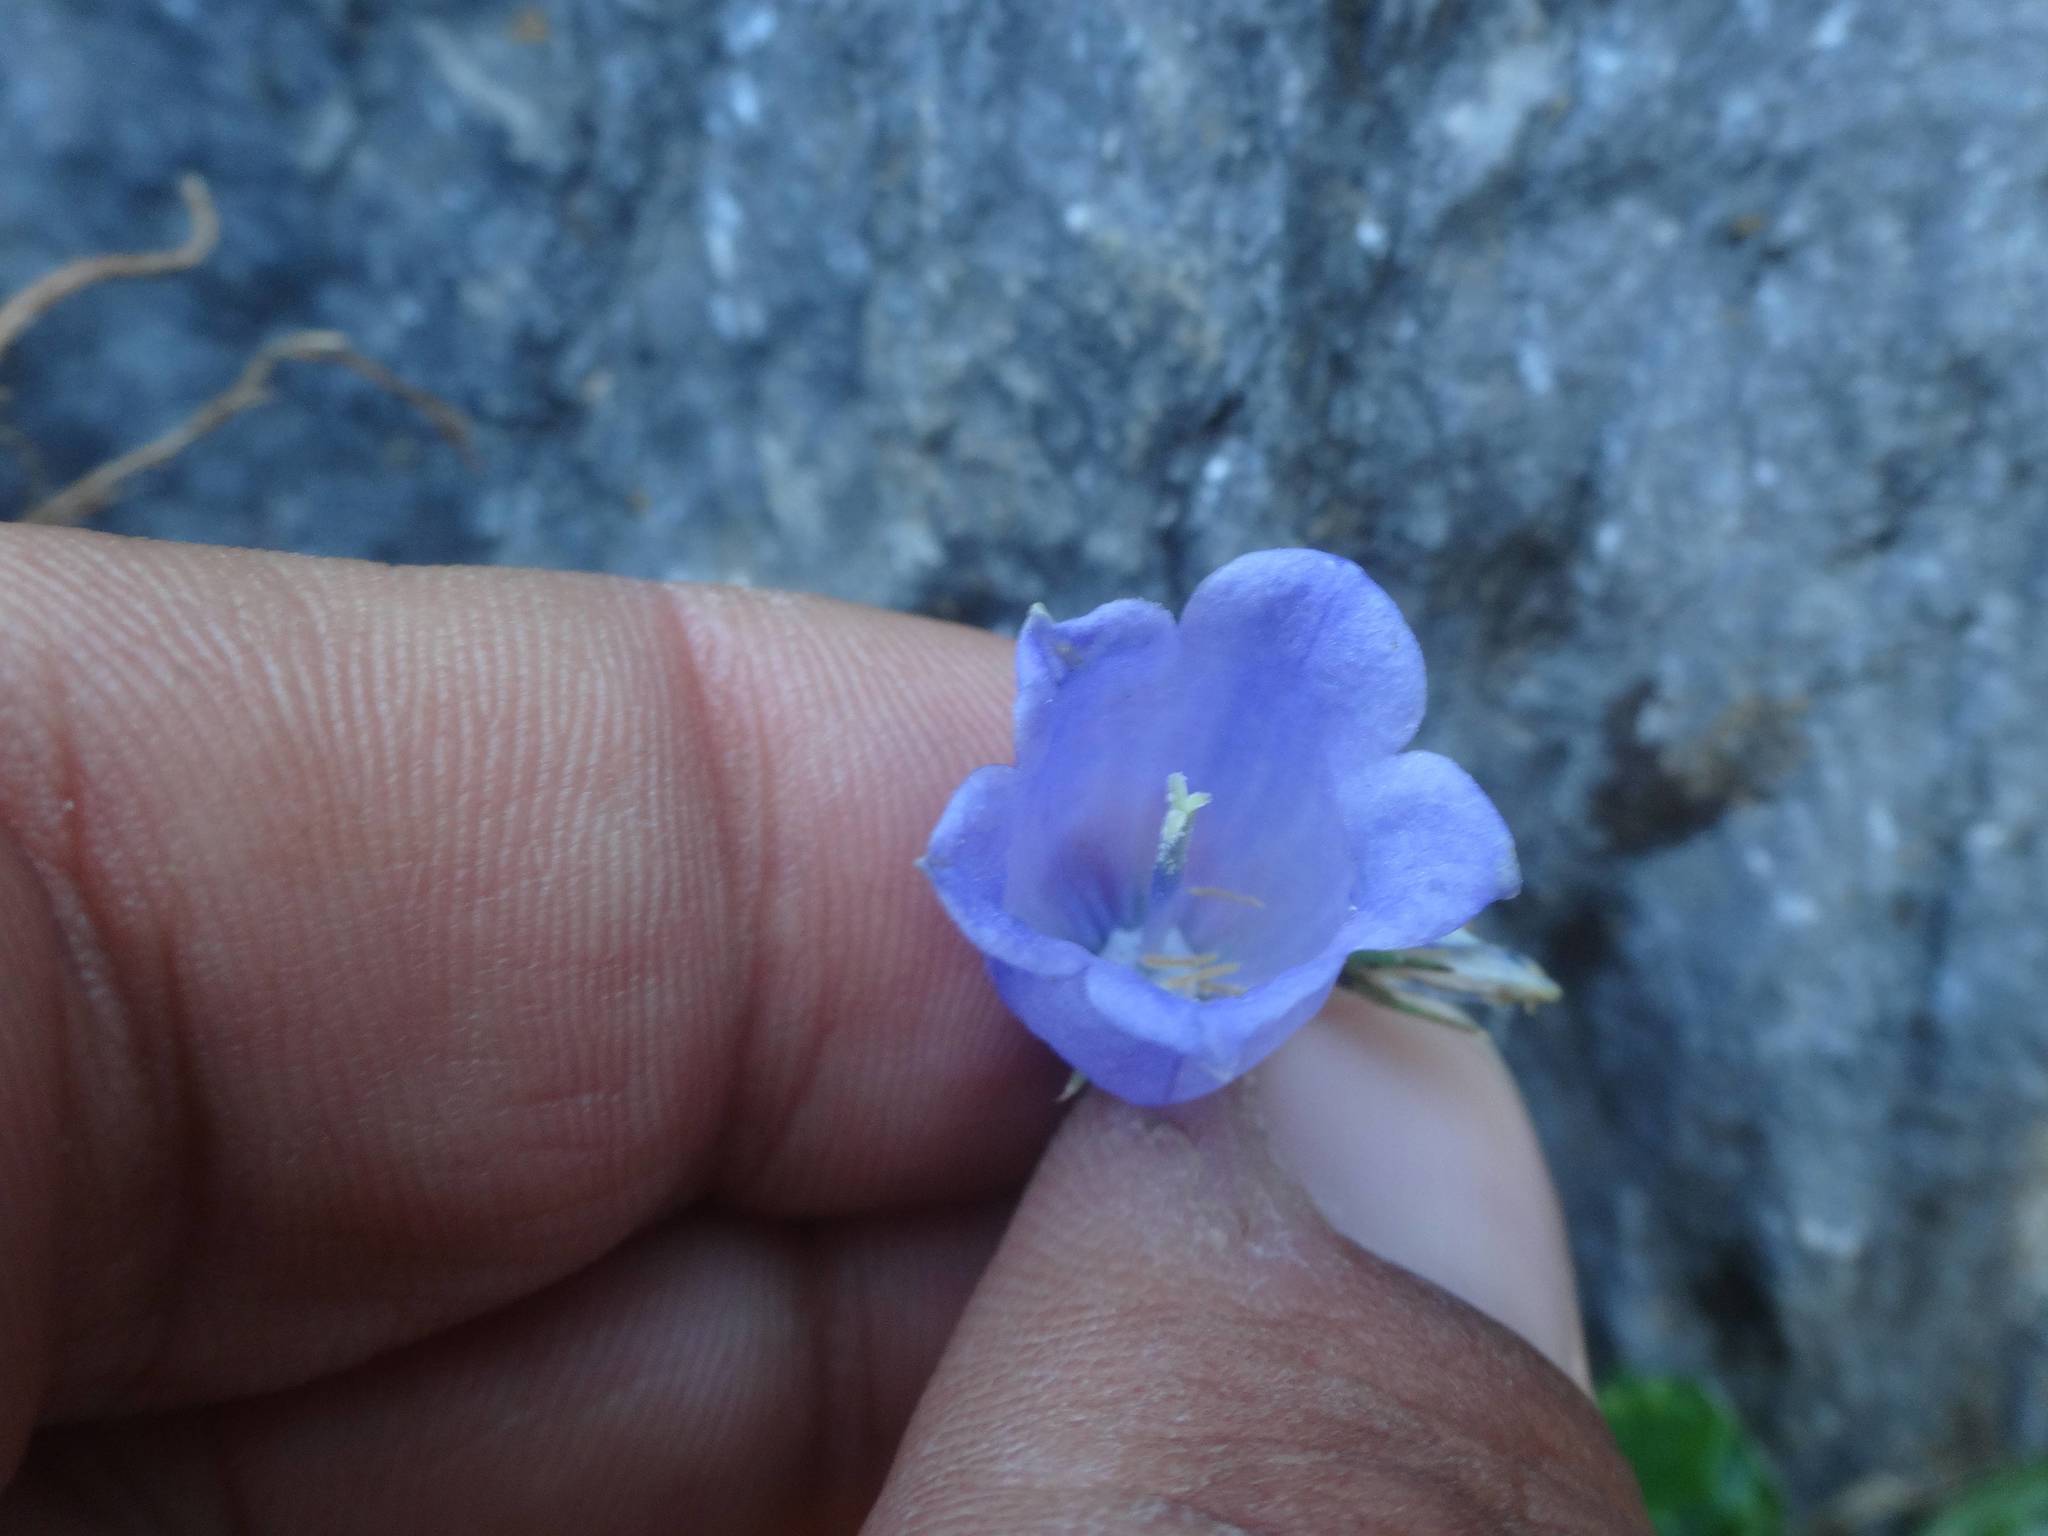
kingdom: Plantae
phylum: Tracheophyta
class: Magnoliopsida
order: Asterales
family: Campanulaceae
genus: Campanula
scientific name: Campanula cochleariifolia
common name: Fairies'-thimbles
